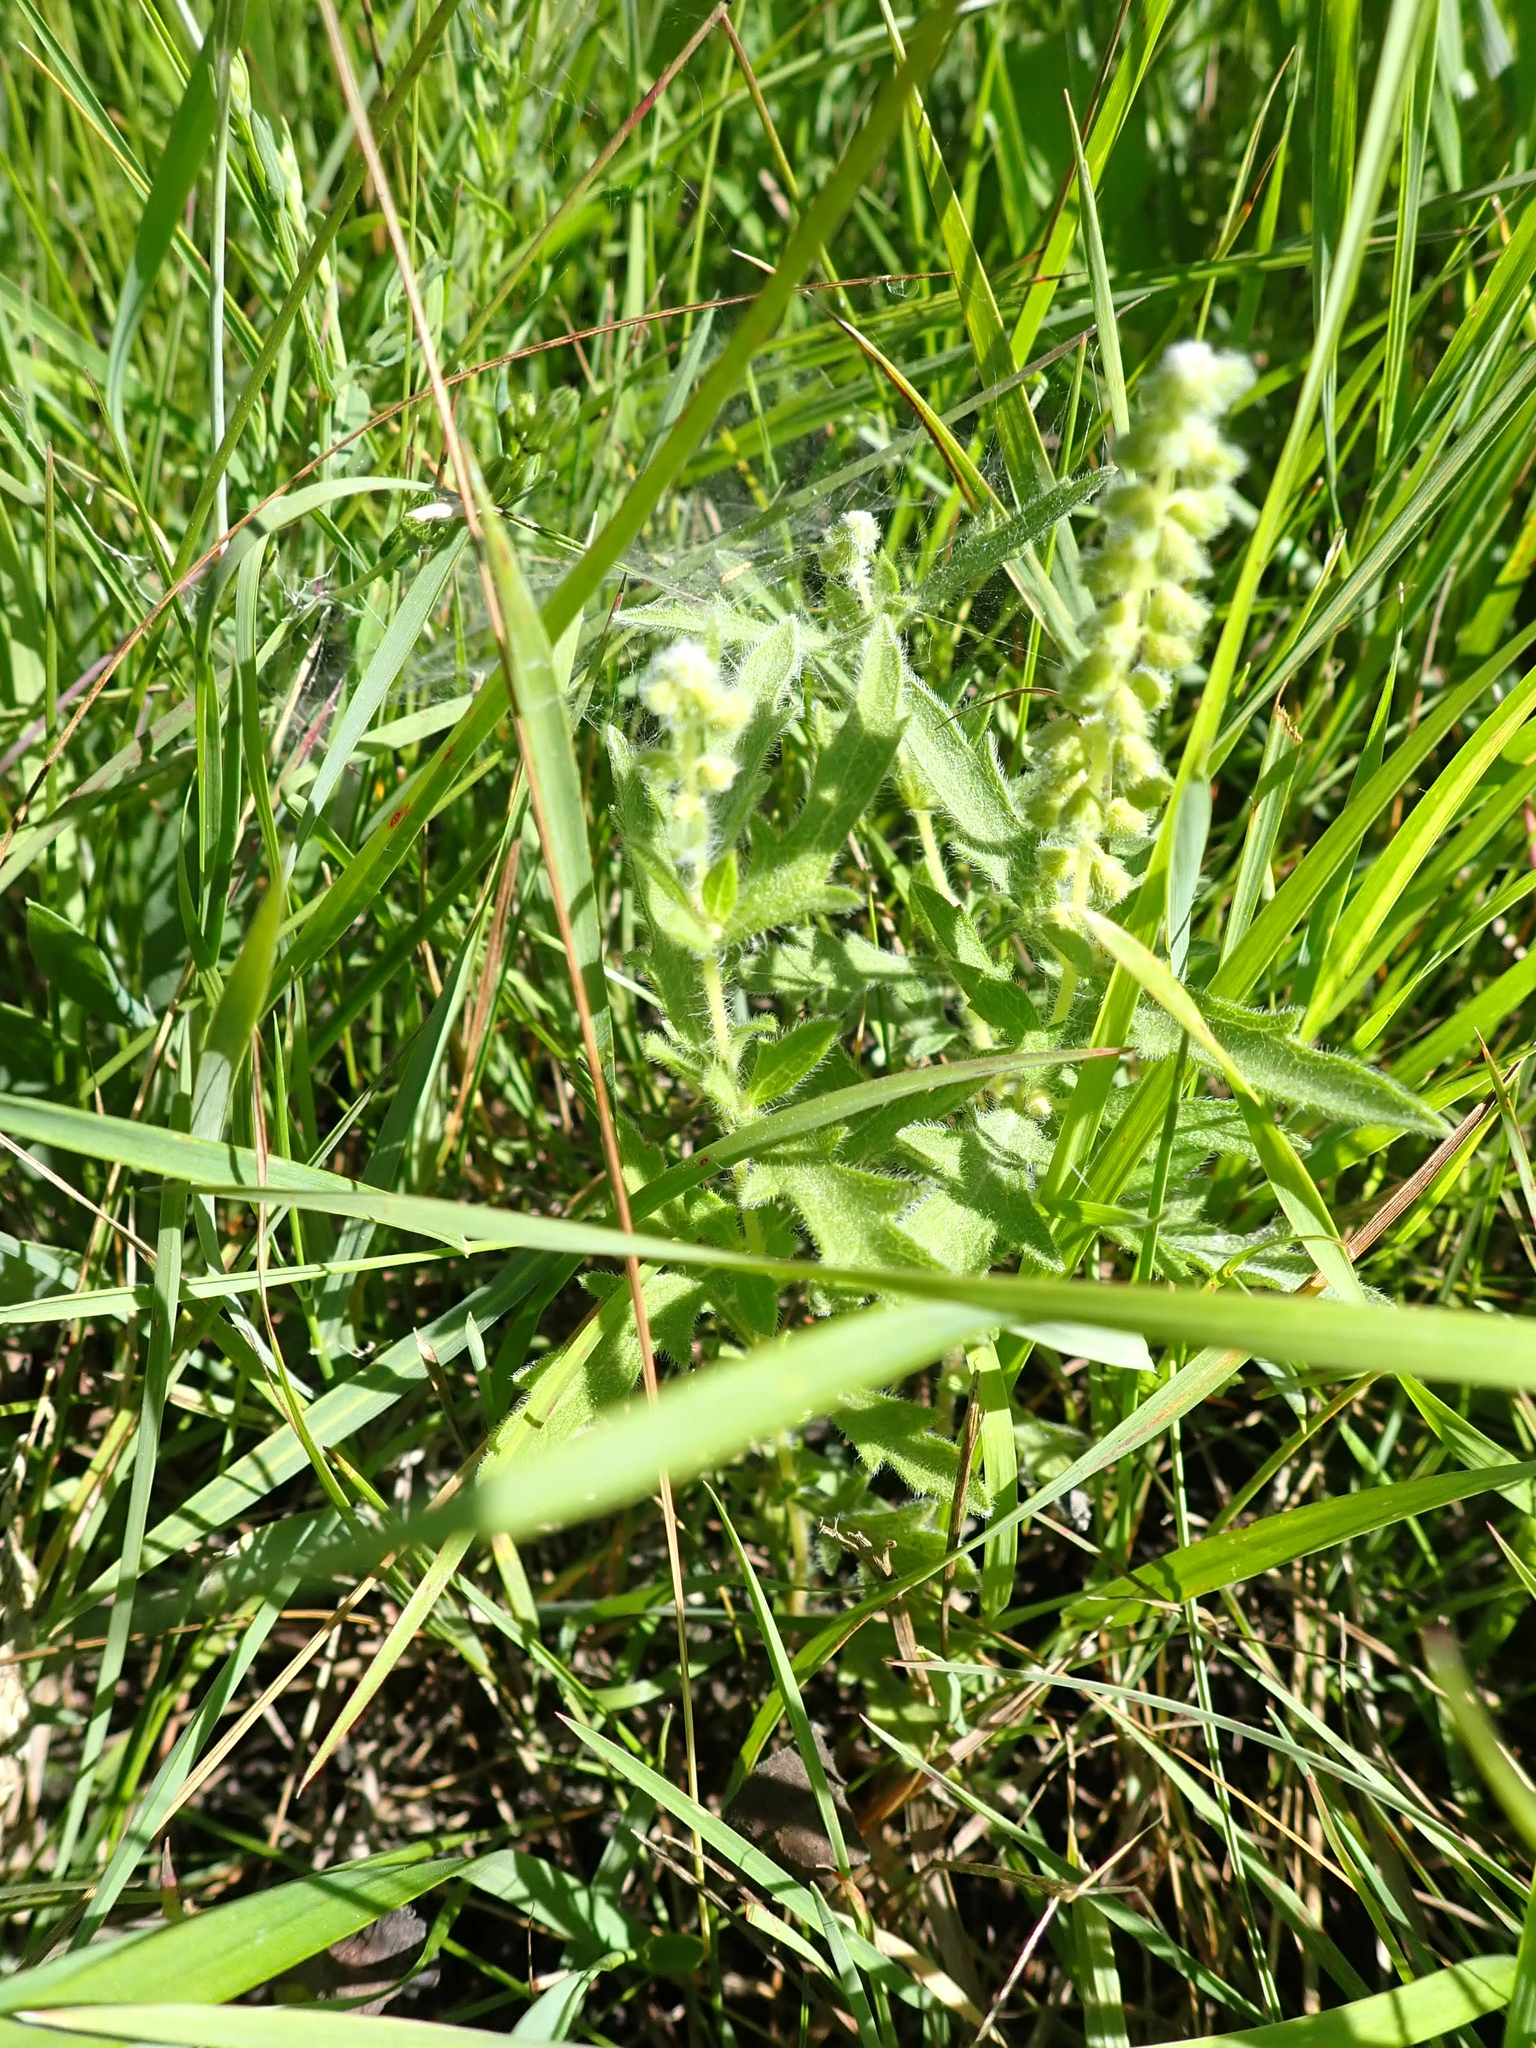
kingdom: Plantae
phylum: Tracheophyta
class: Magnoliopsida
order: Asterales
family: Asteraceae
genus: Ambrosia
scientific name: Ambrosia psilostachya
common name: Perennial ragweed
